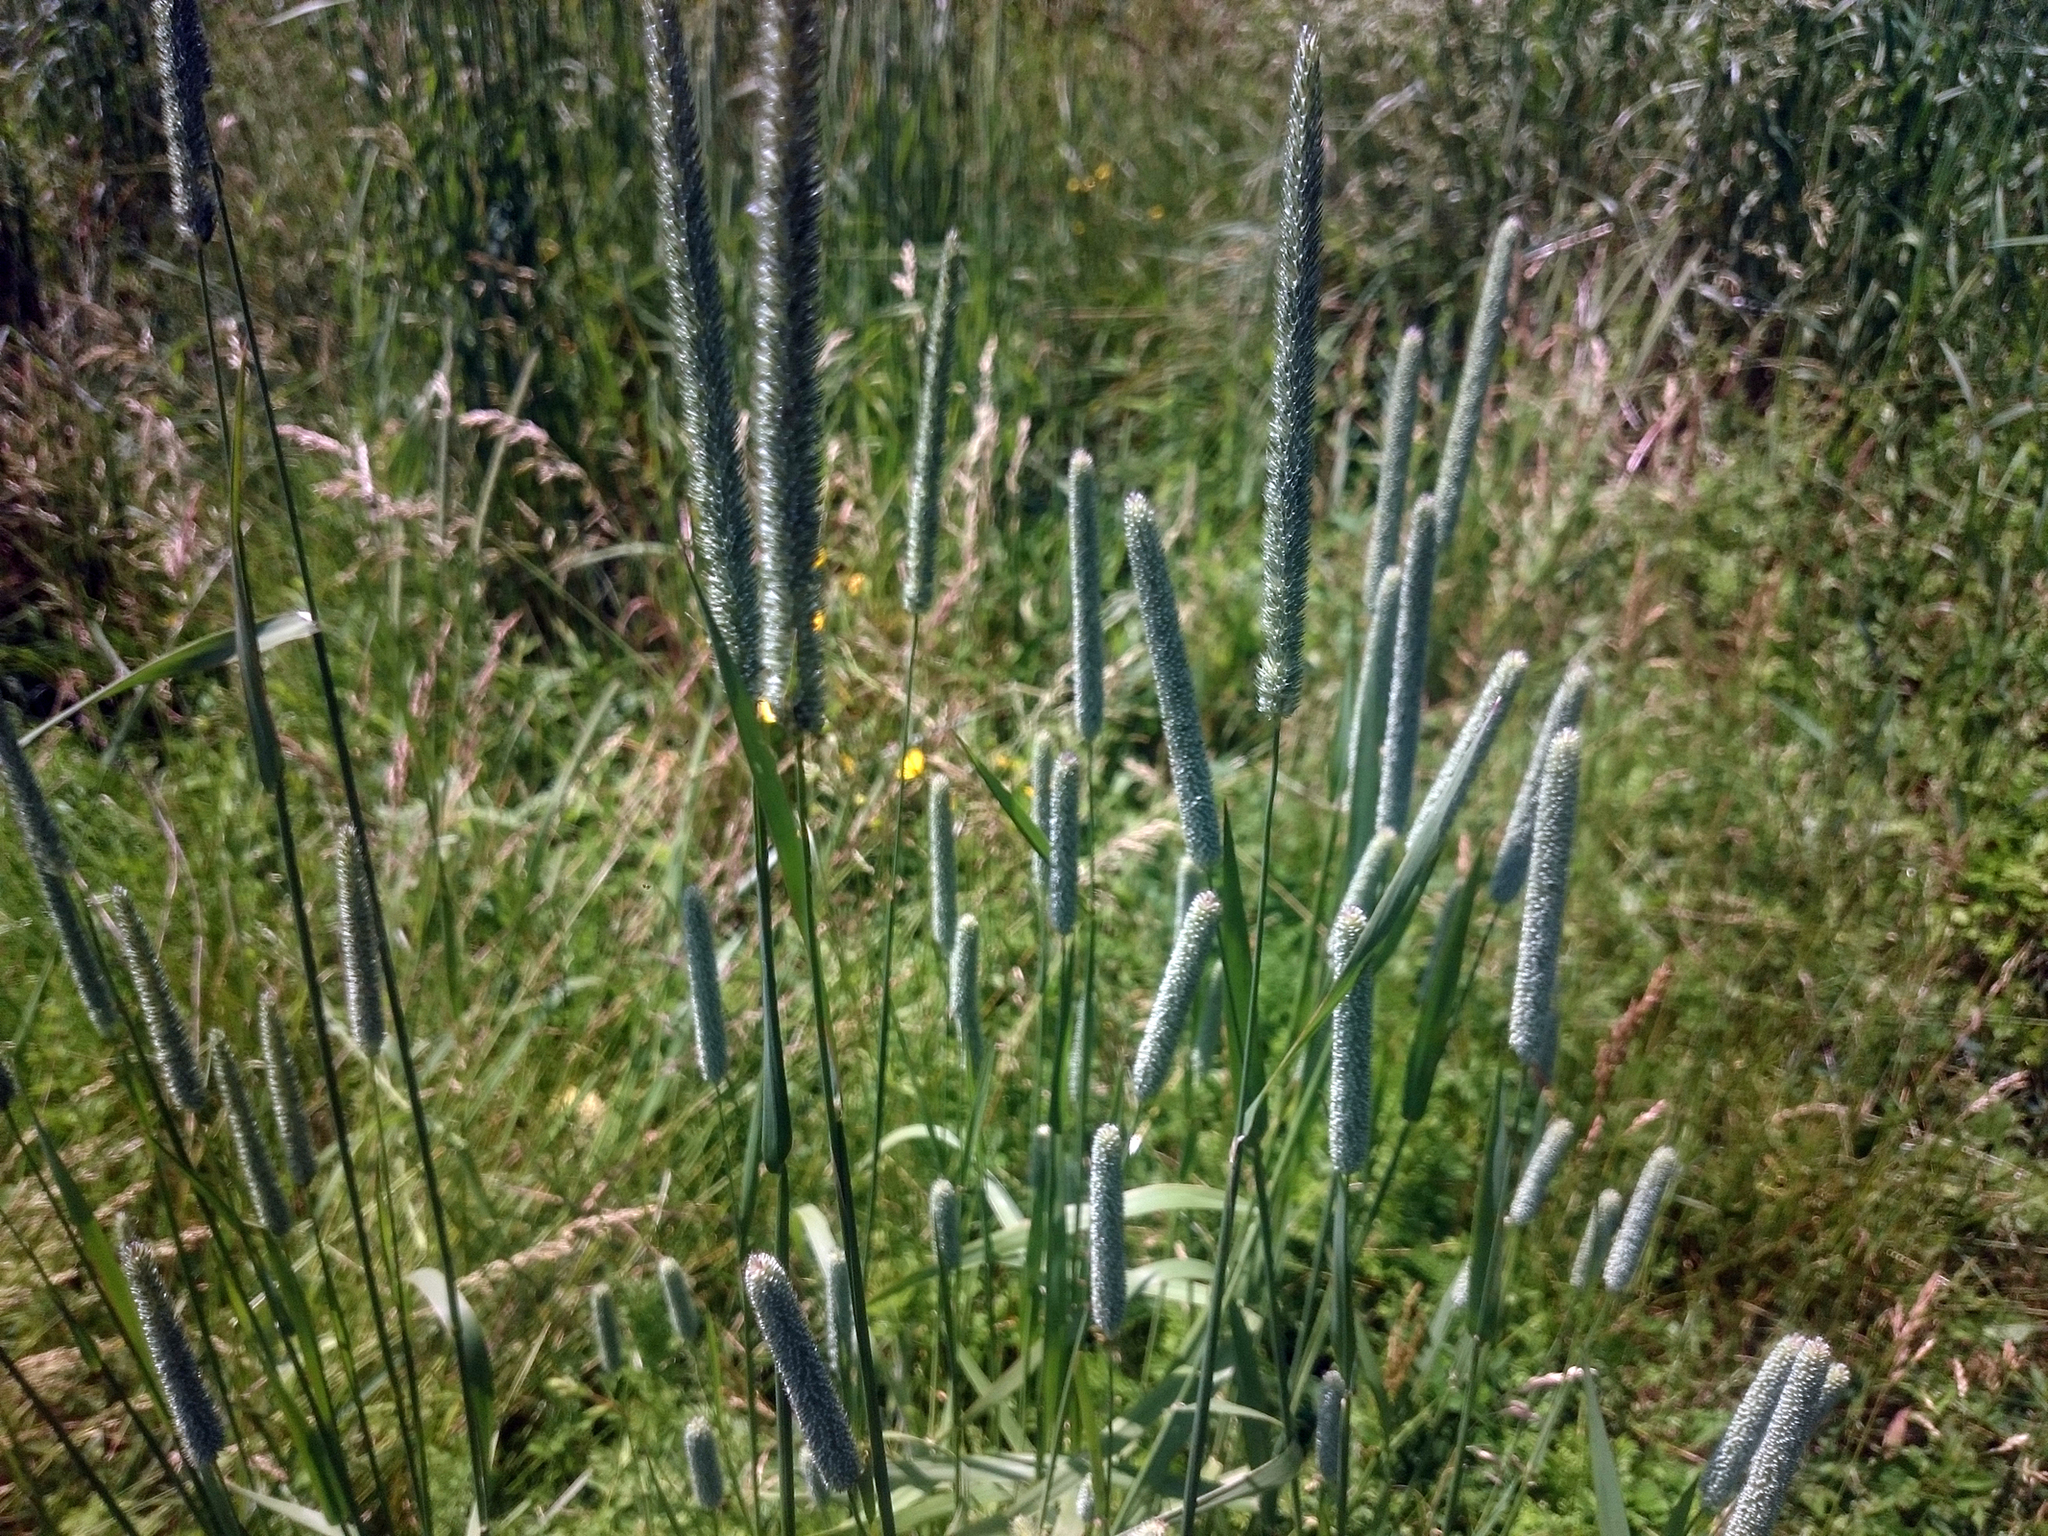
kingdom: Plantae
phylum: Tracheophyta
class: Liliopsida
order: Poales
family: Poaceae
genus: Phleum
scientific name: Phleum pratense
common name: Timothy grass
